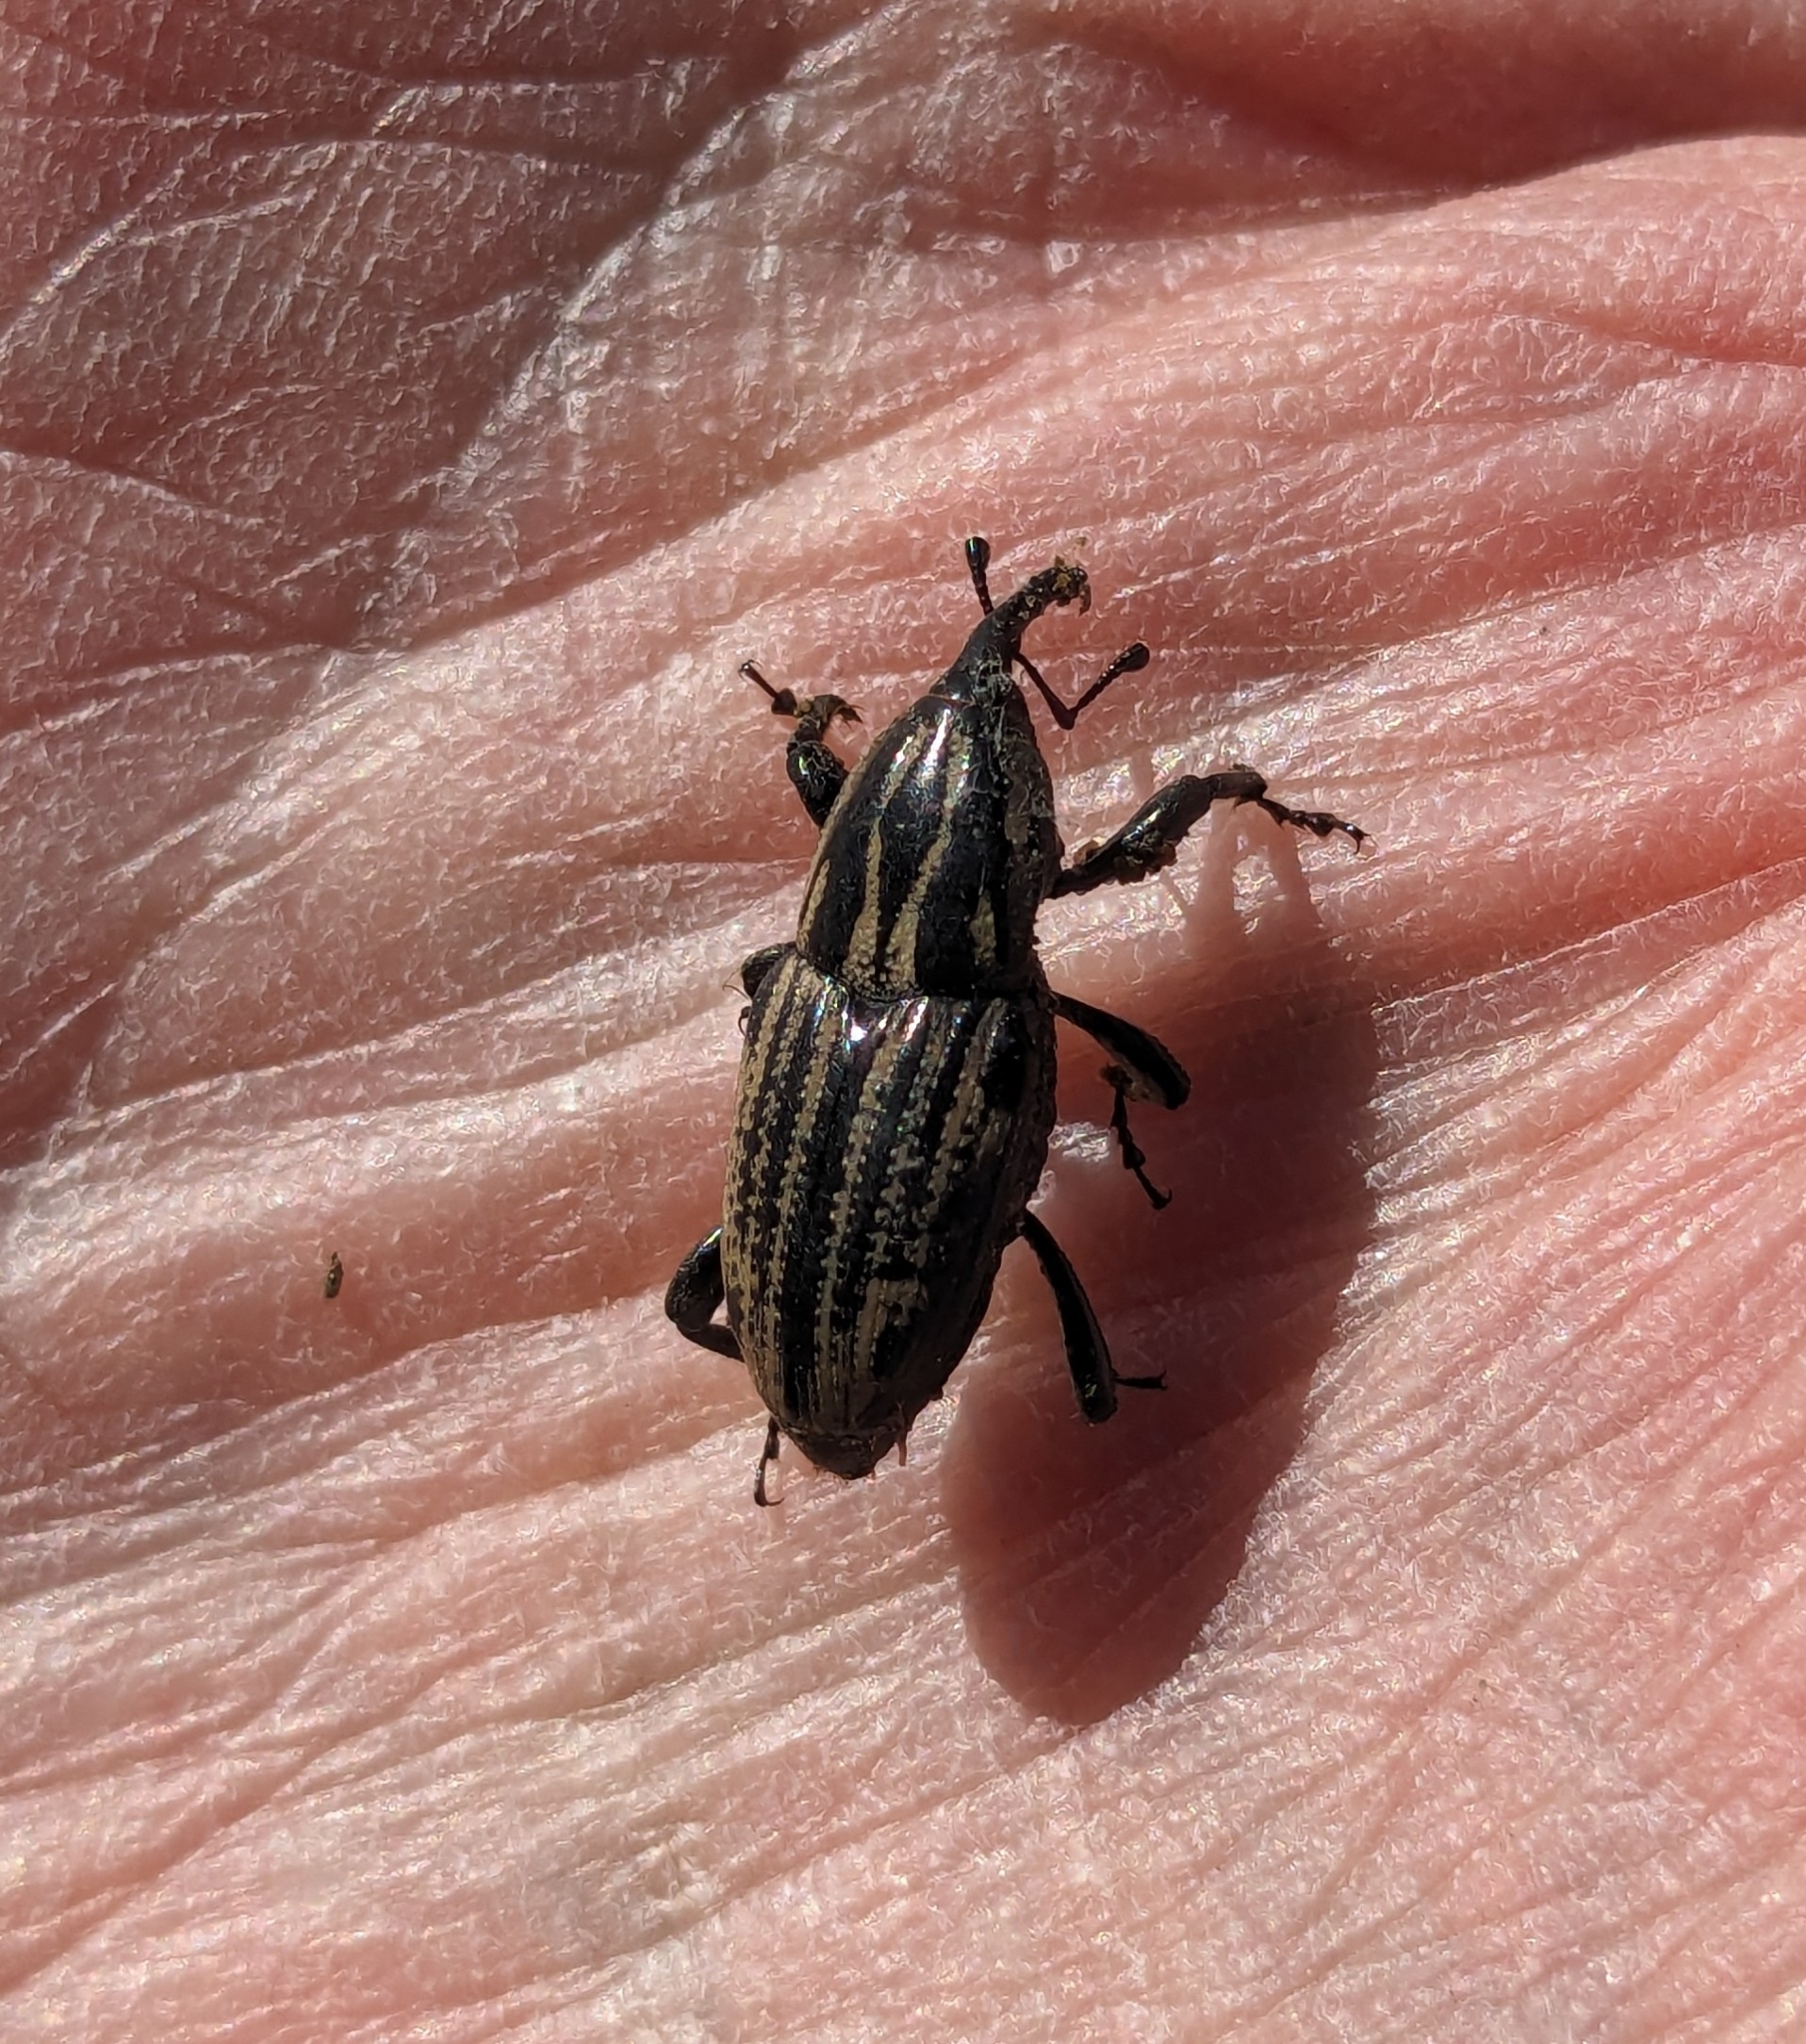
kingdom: Animalia
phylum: Arthropoda
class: Insecta
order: Coleoptera
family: Dryophthoridae
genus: Sphenophorus
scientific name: Sphenophorus australis
